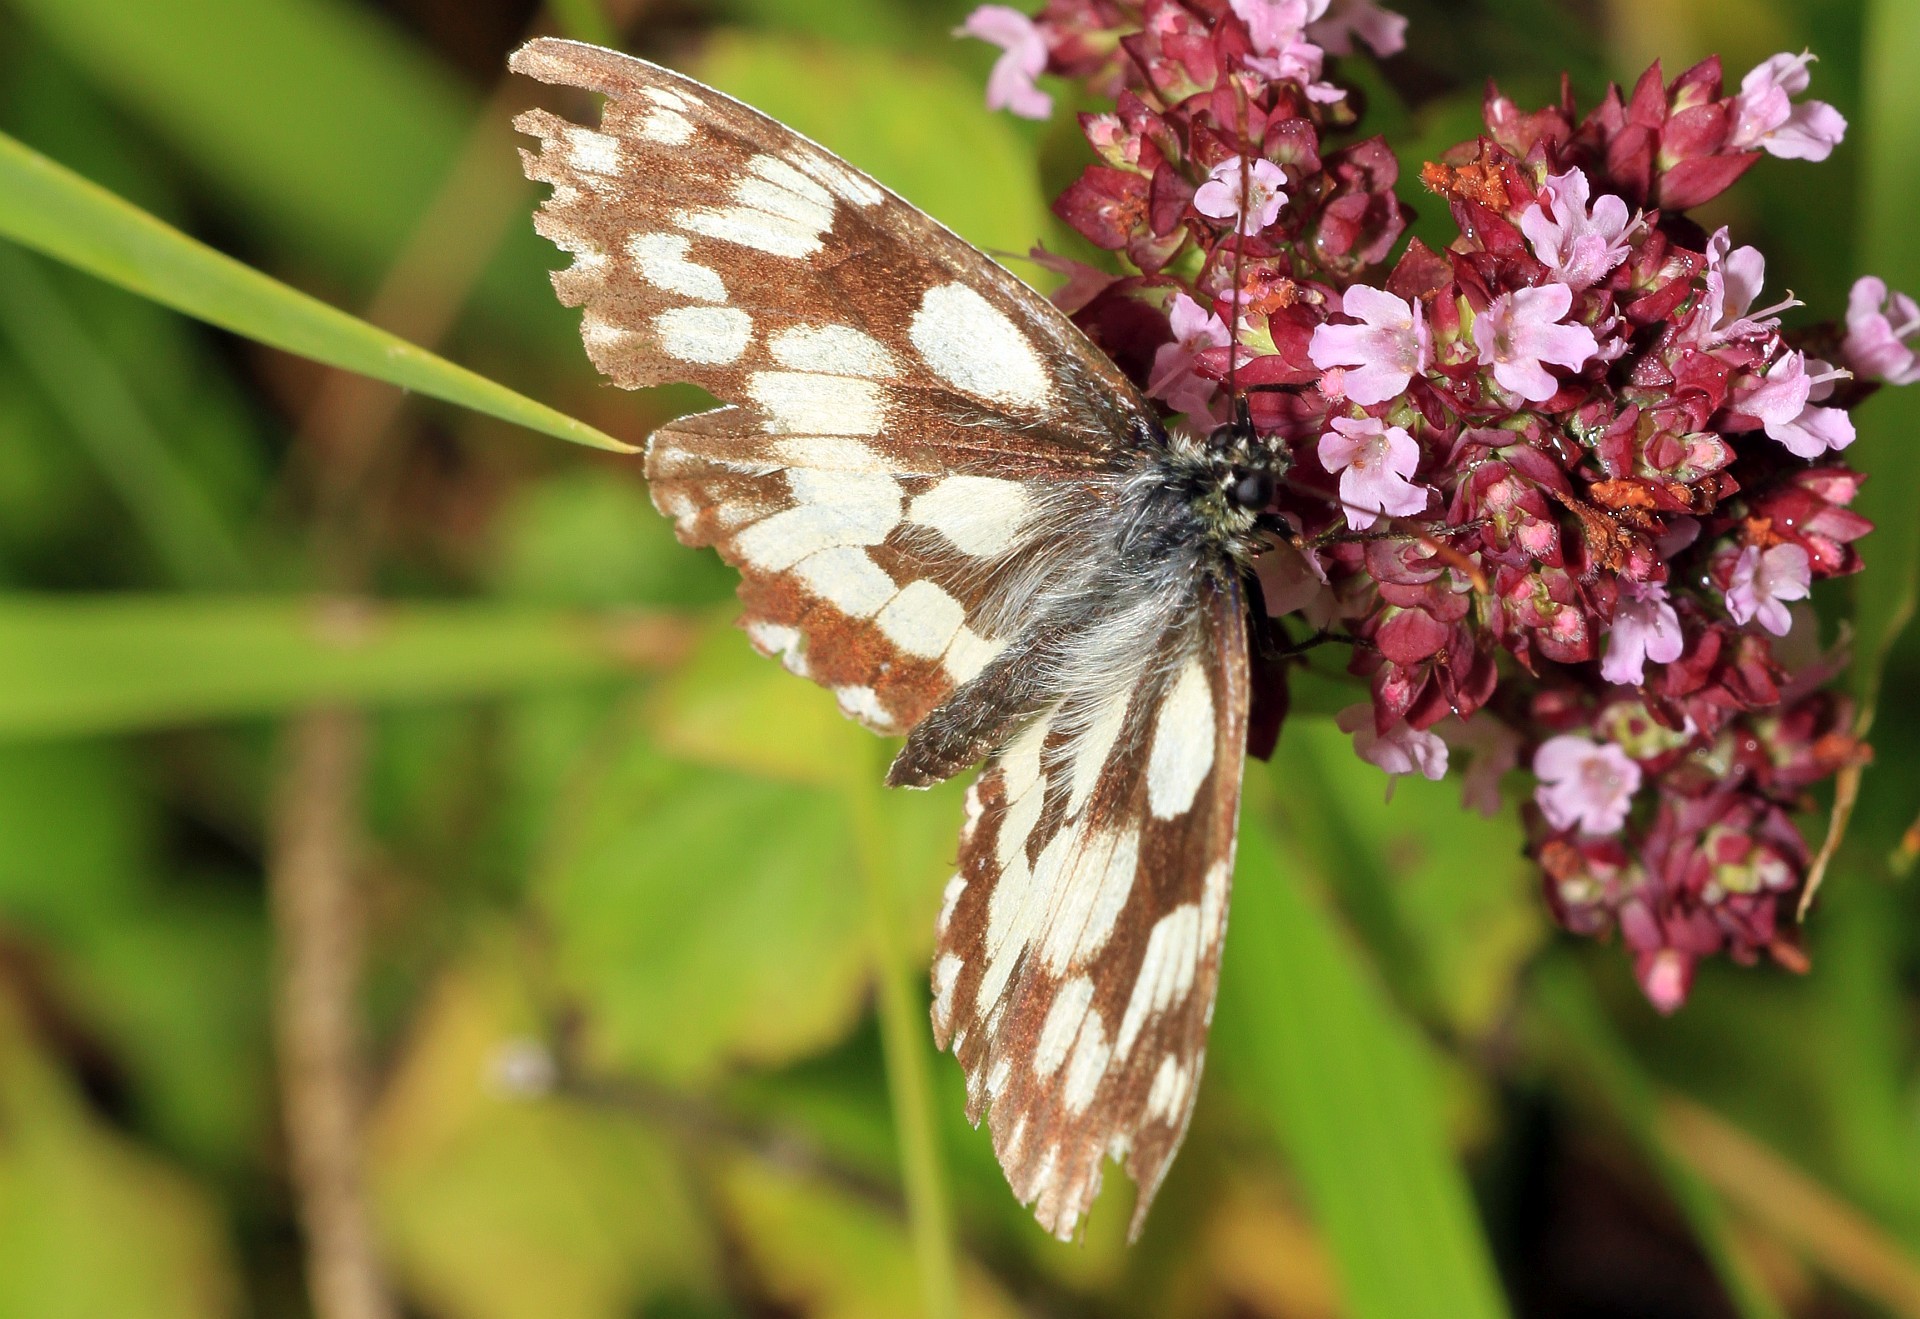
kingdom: Animalia
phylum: Arthropoda
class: Insecta
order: Lepidoptera
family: Nymphalidae
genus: Melanargia
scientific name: Melanargia galathea
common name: Marbled white
